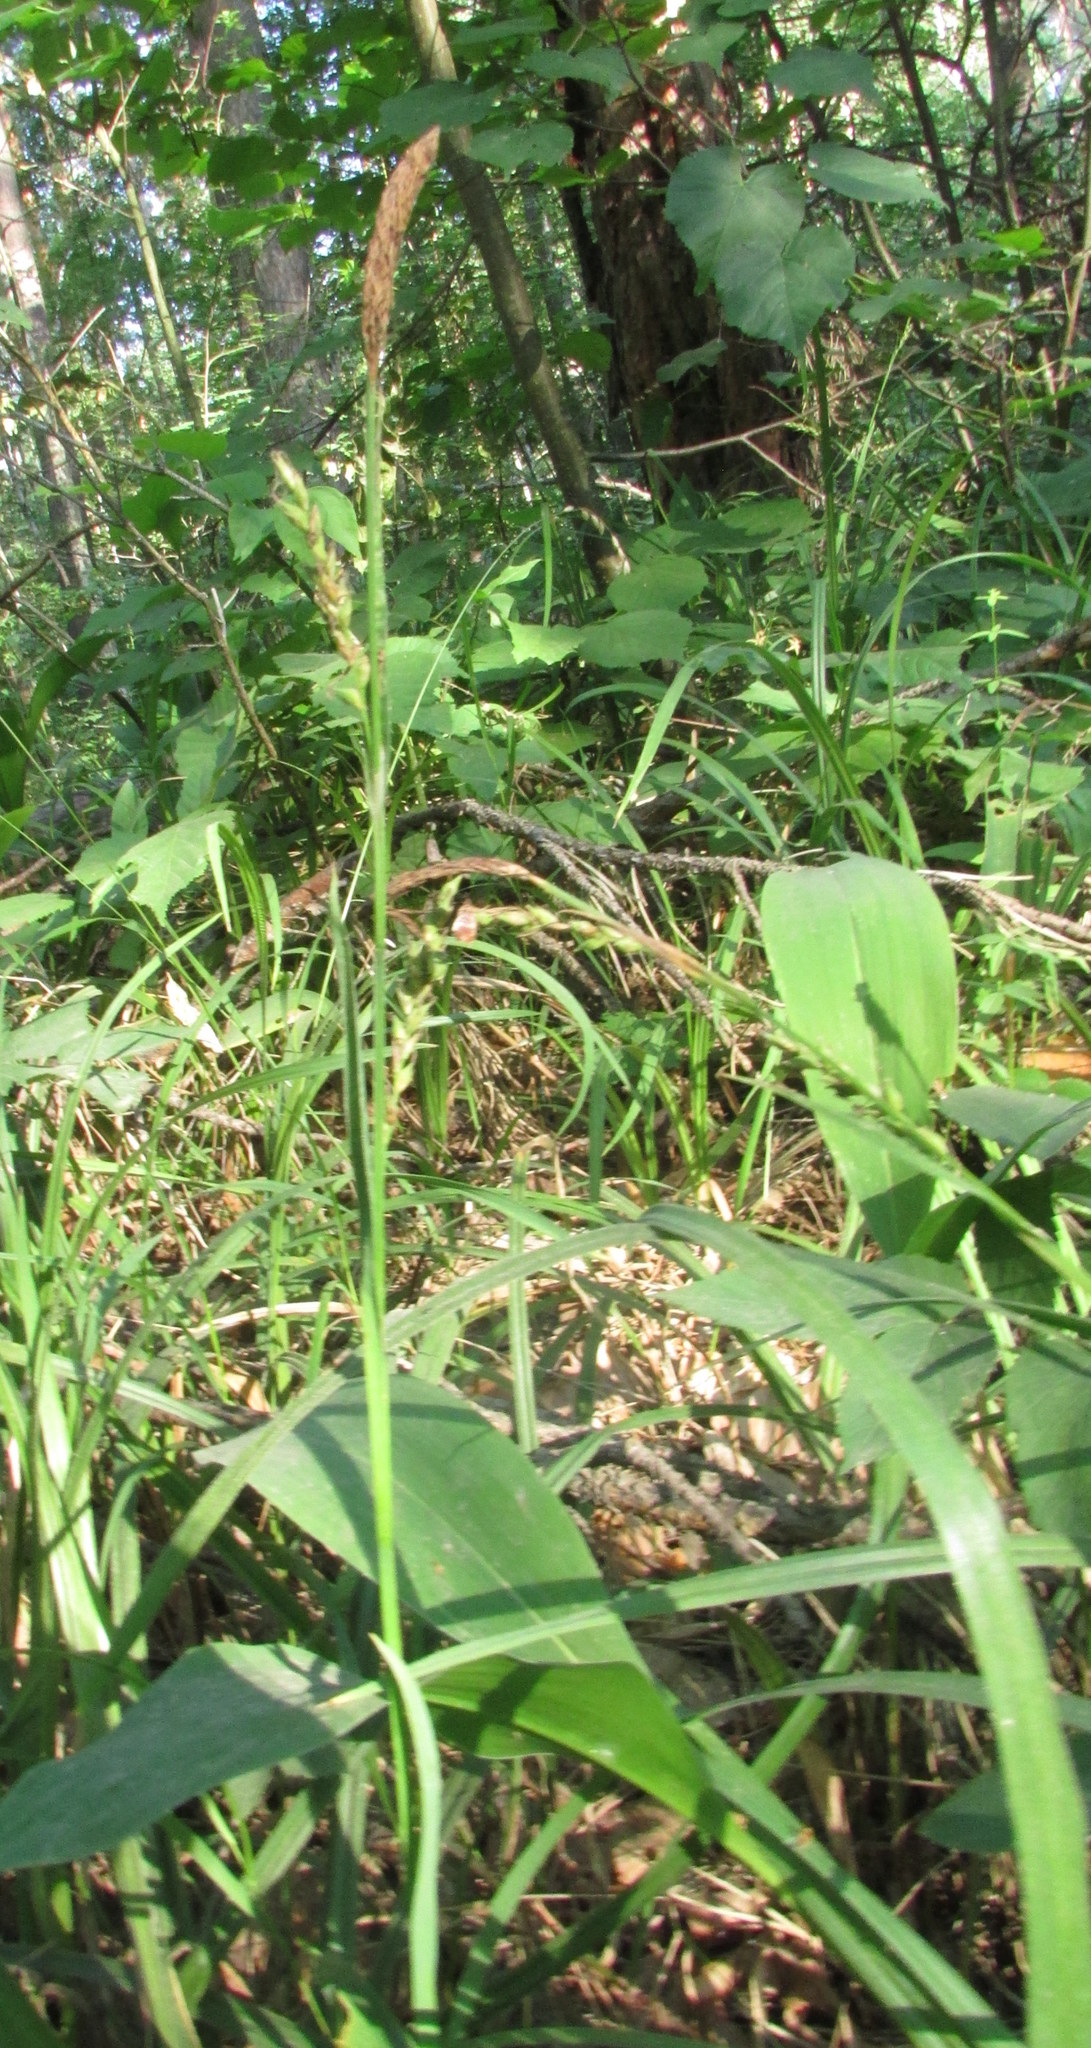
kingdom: Plantae
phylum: Tracheophyta
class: Liliopsida
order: Poales
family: Cyperaceae
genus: Carex
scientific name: Carex pilosa
